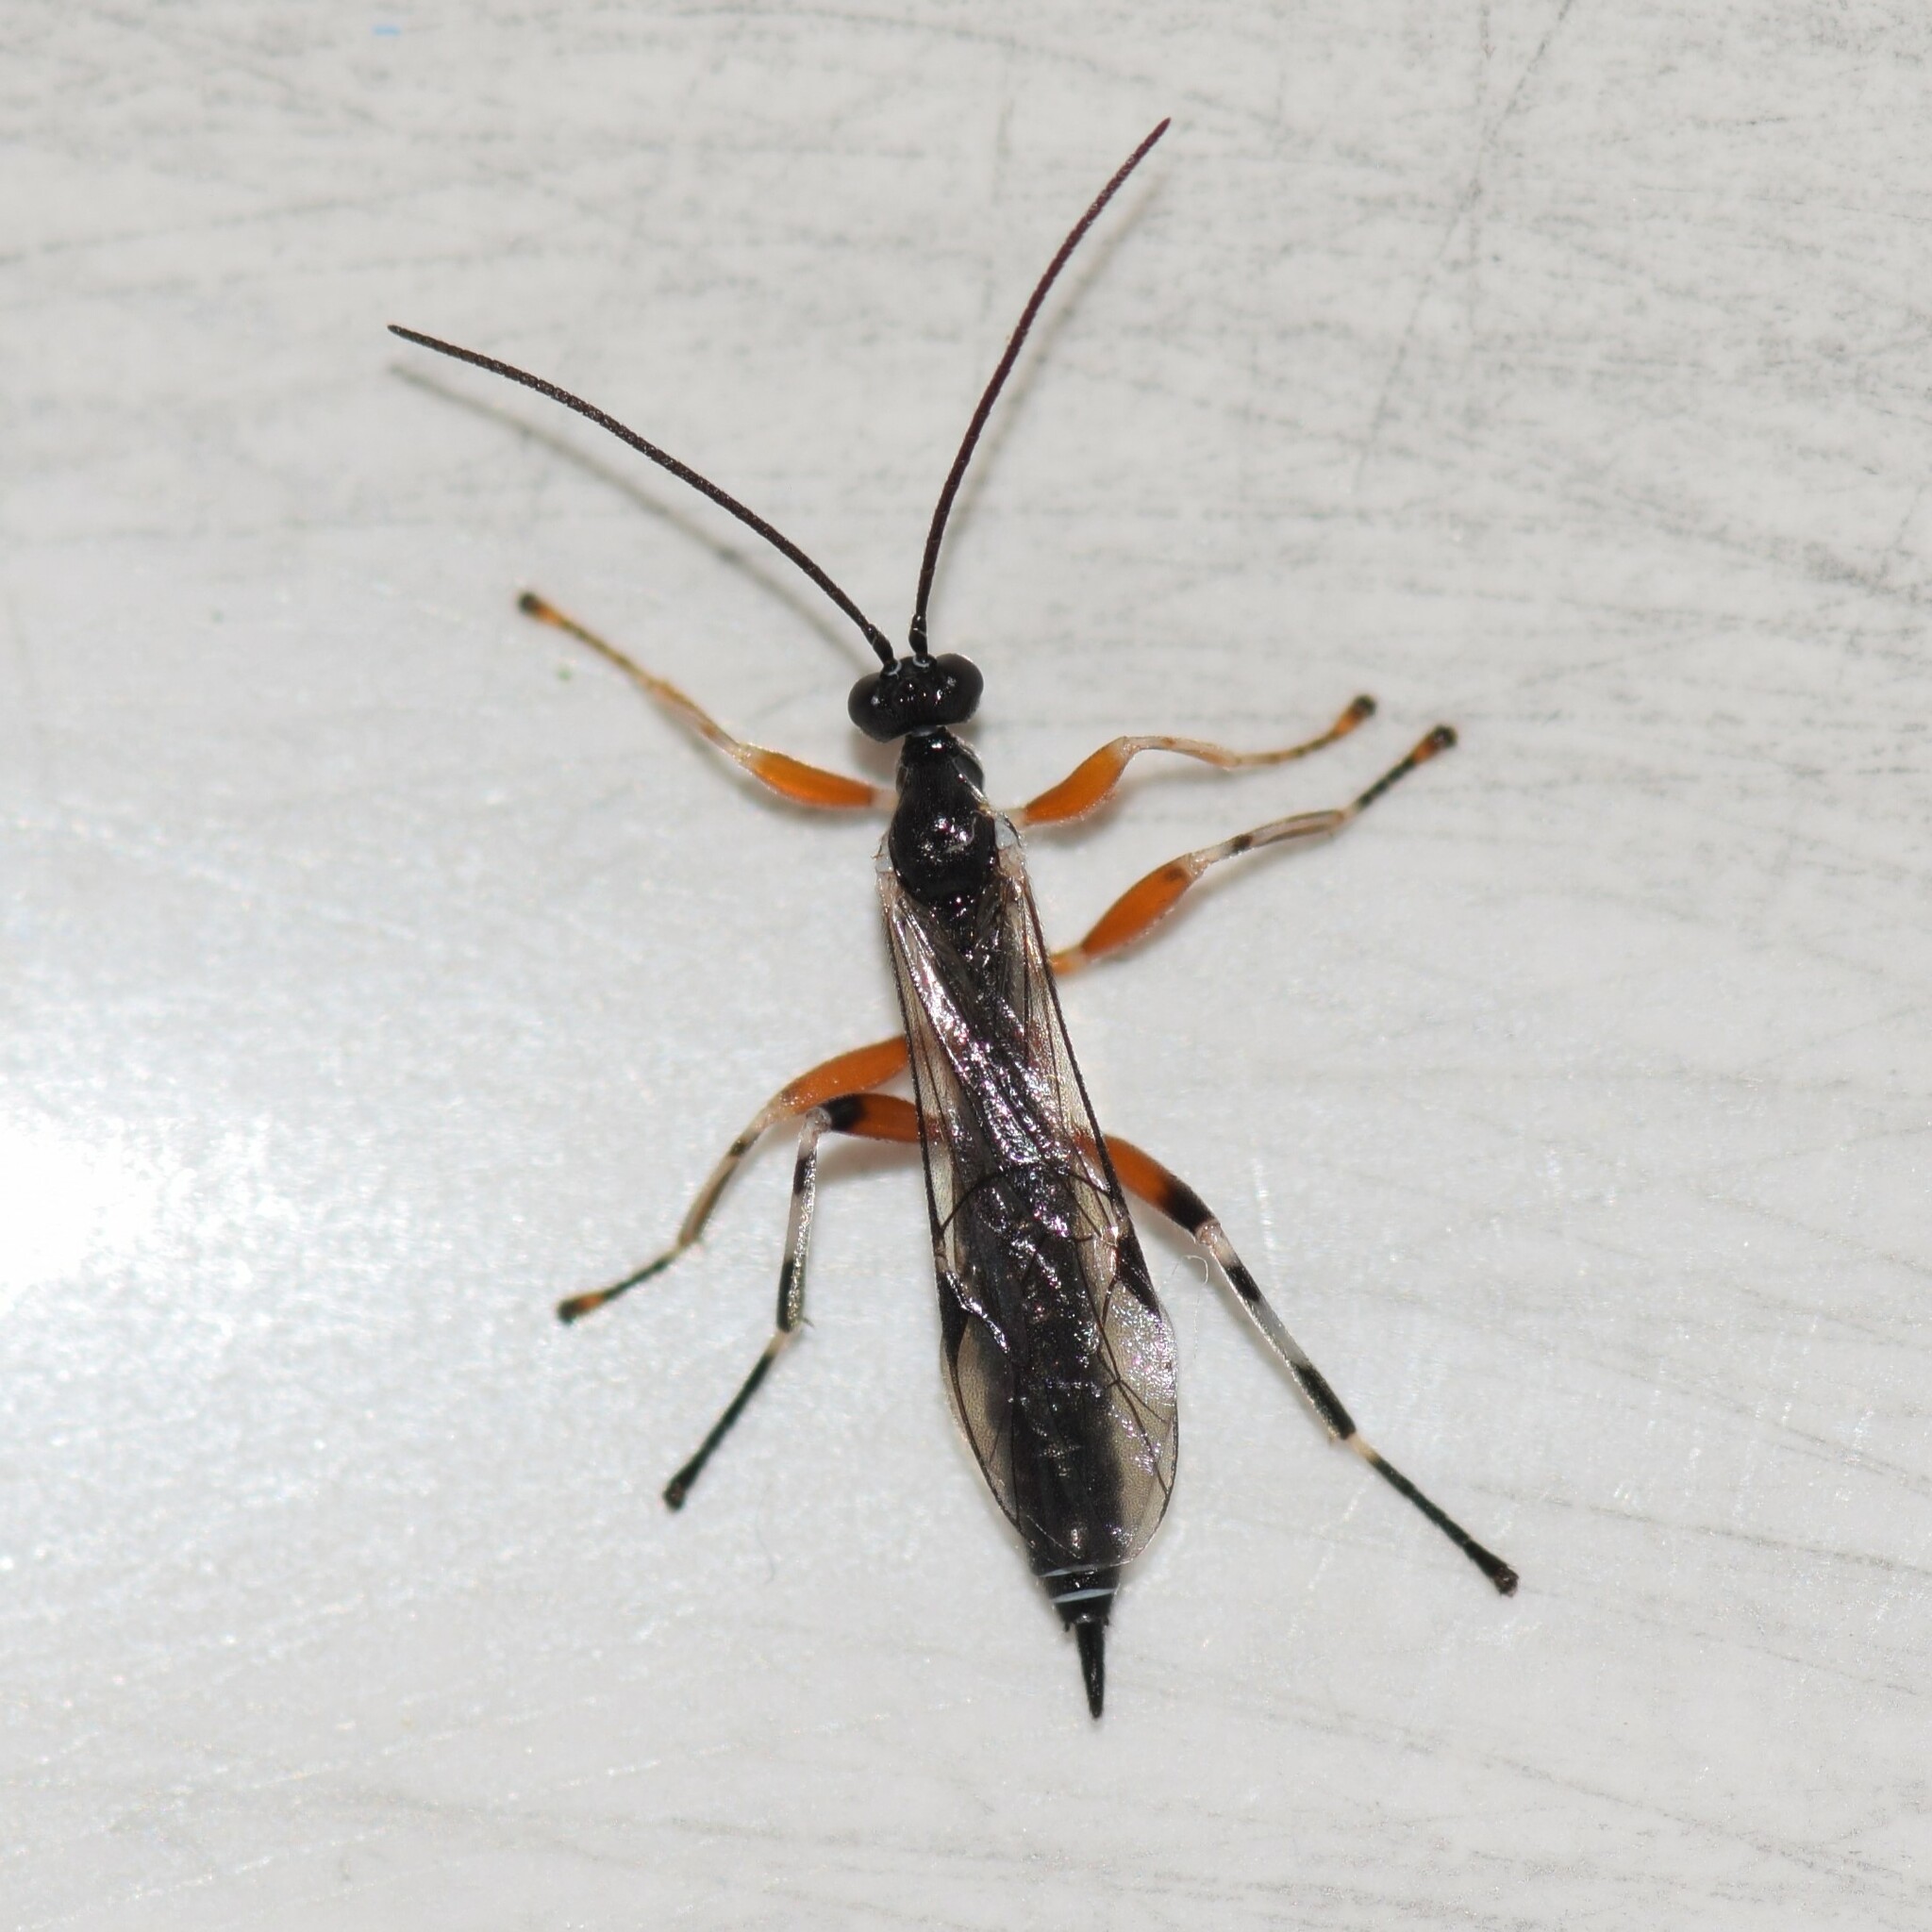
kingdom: Animalia
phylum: Arthropoda
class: Insecta
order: Hymenoptera
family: Ichneumonidae
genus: Oxyrrhexis
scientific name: Oxyrrhexis carbonator
